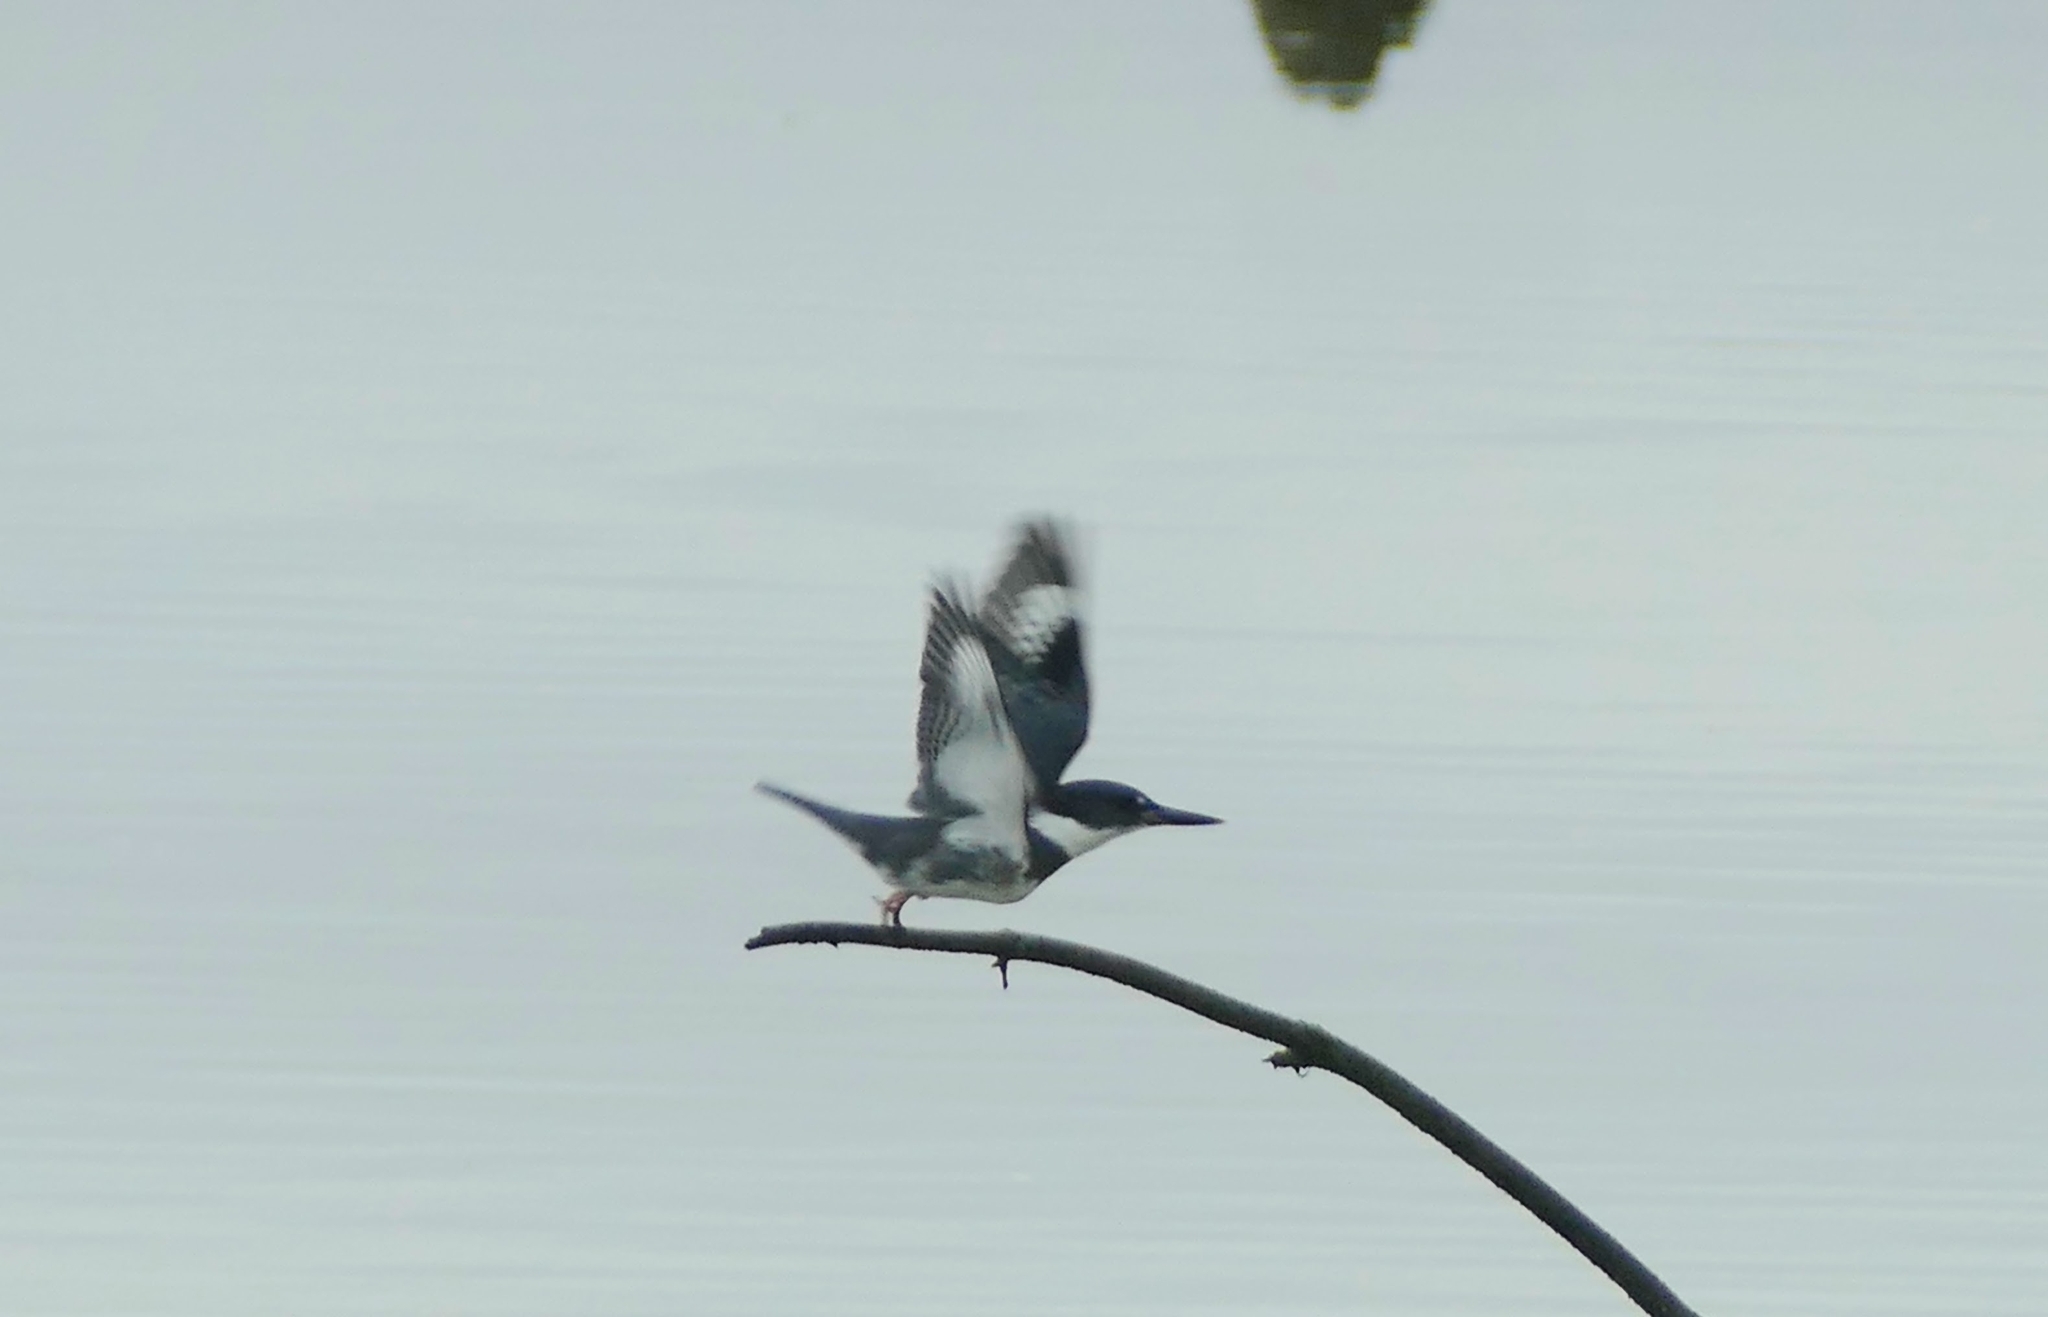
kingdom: Animalia
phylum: Chordata
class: Aves
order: Coraciiformes
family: Alcedinidae
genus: Megaceryle
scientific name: Megaceryle alcyon
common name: Belted kingfisher
